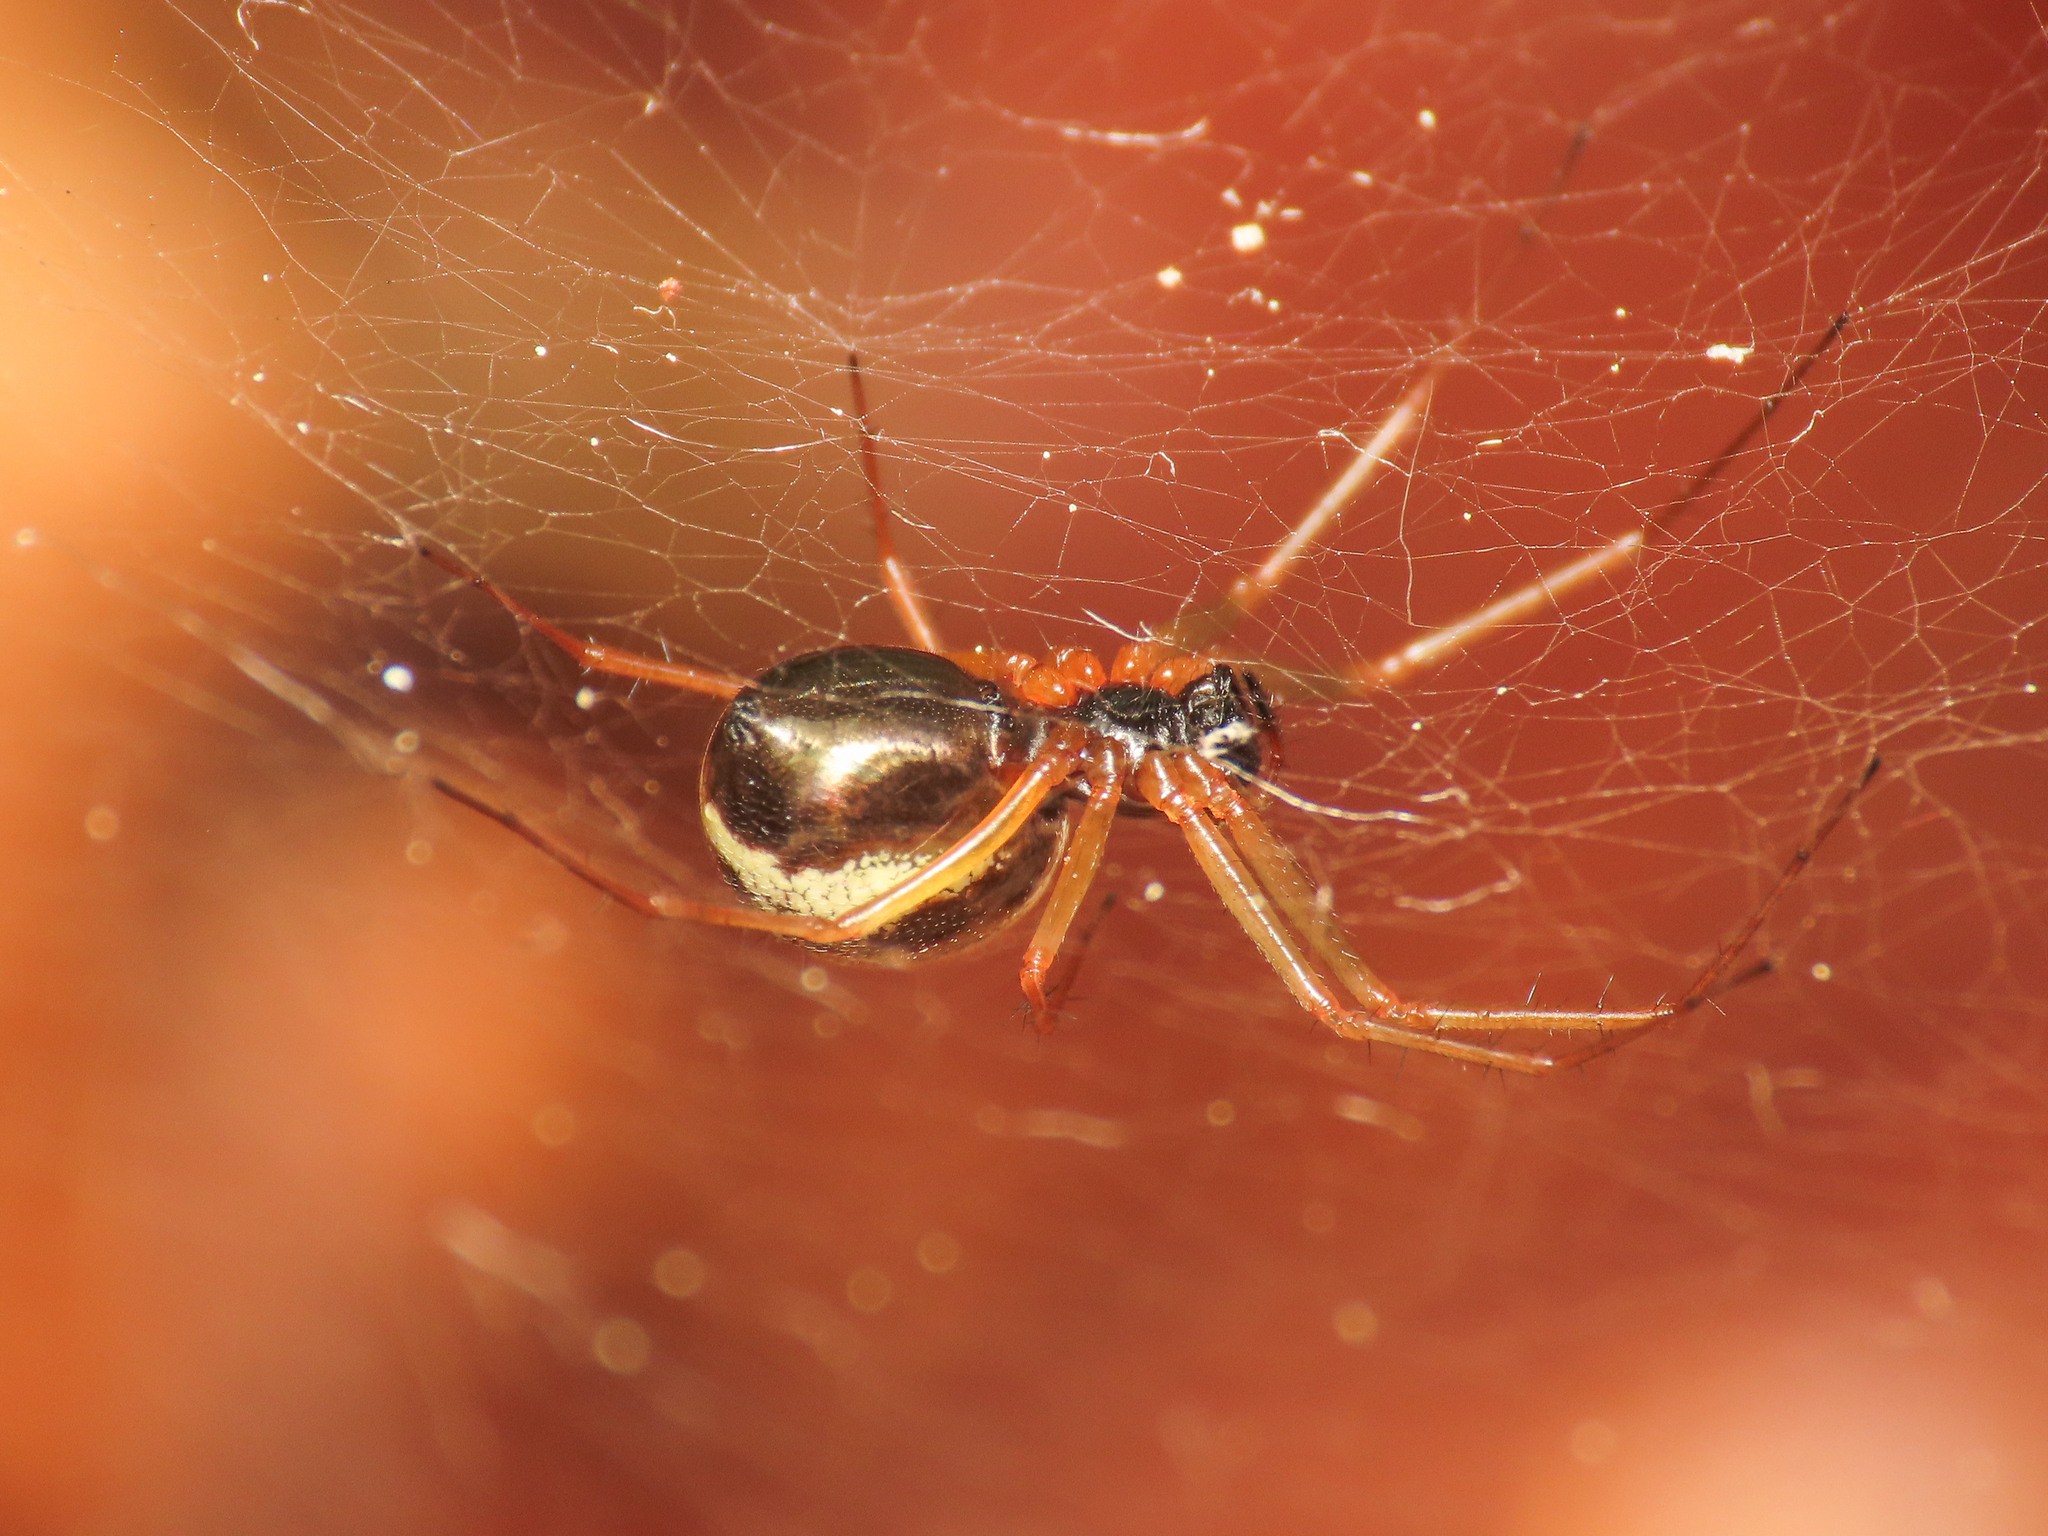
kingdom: Animalia
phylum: Arthropoda
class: Arachnida
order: Araneae
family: Linyphiidae
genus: Linyphia
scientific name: Linyphia hortensis
